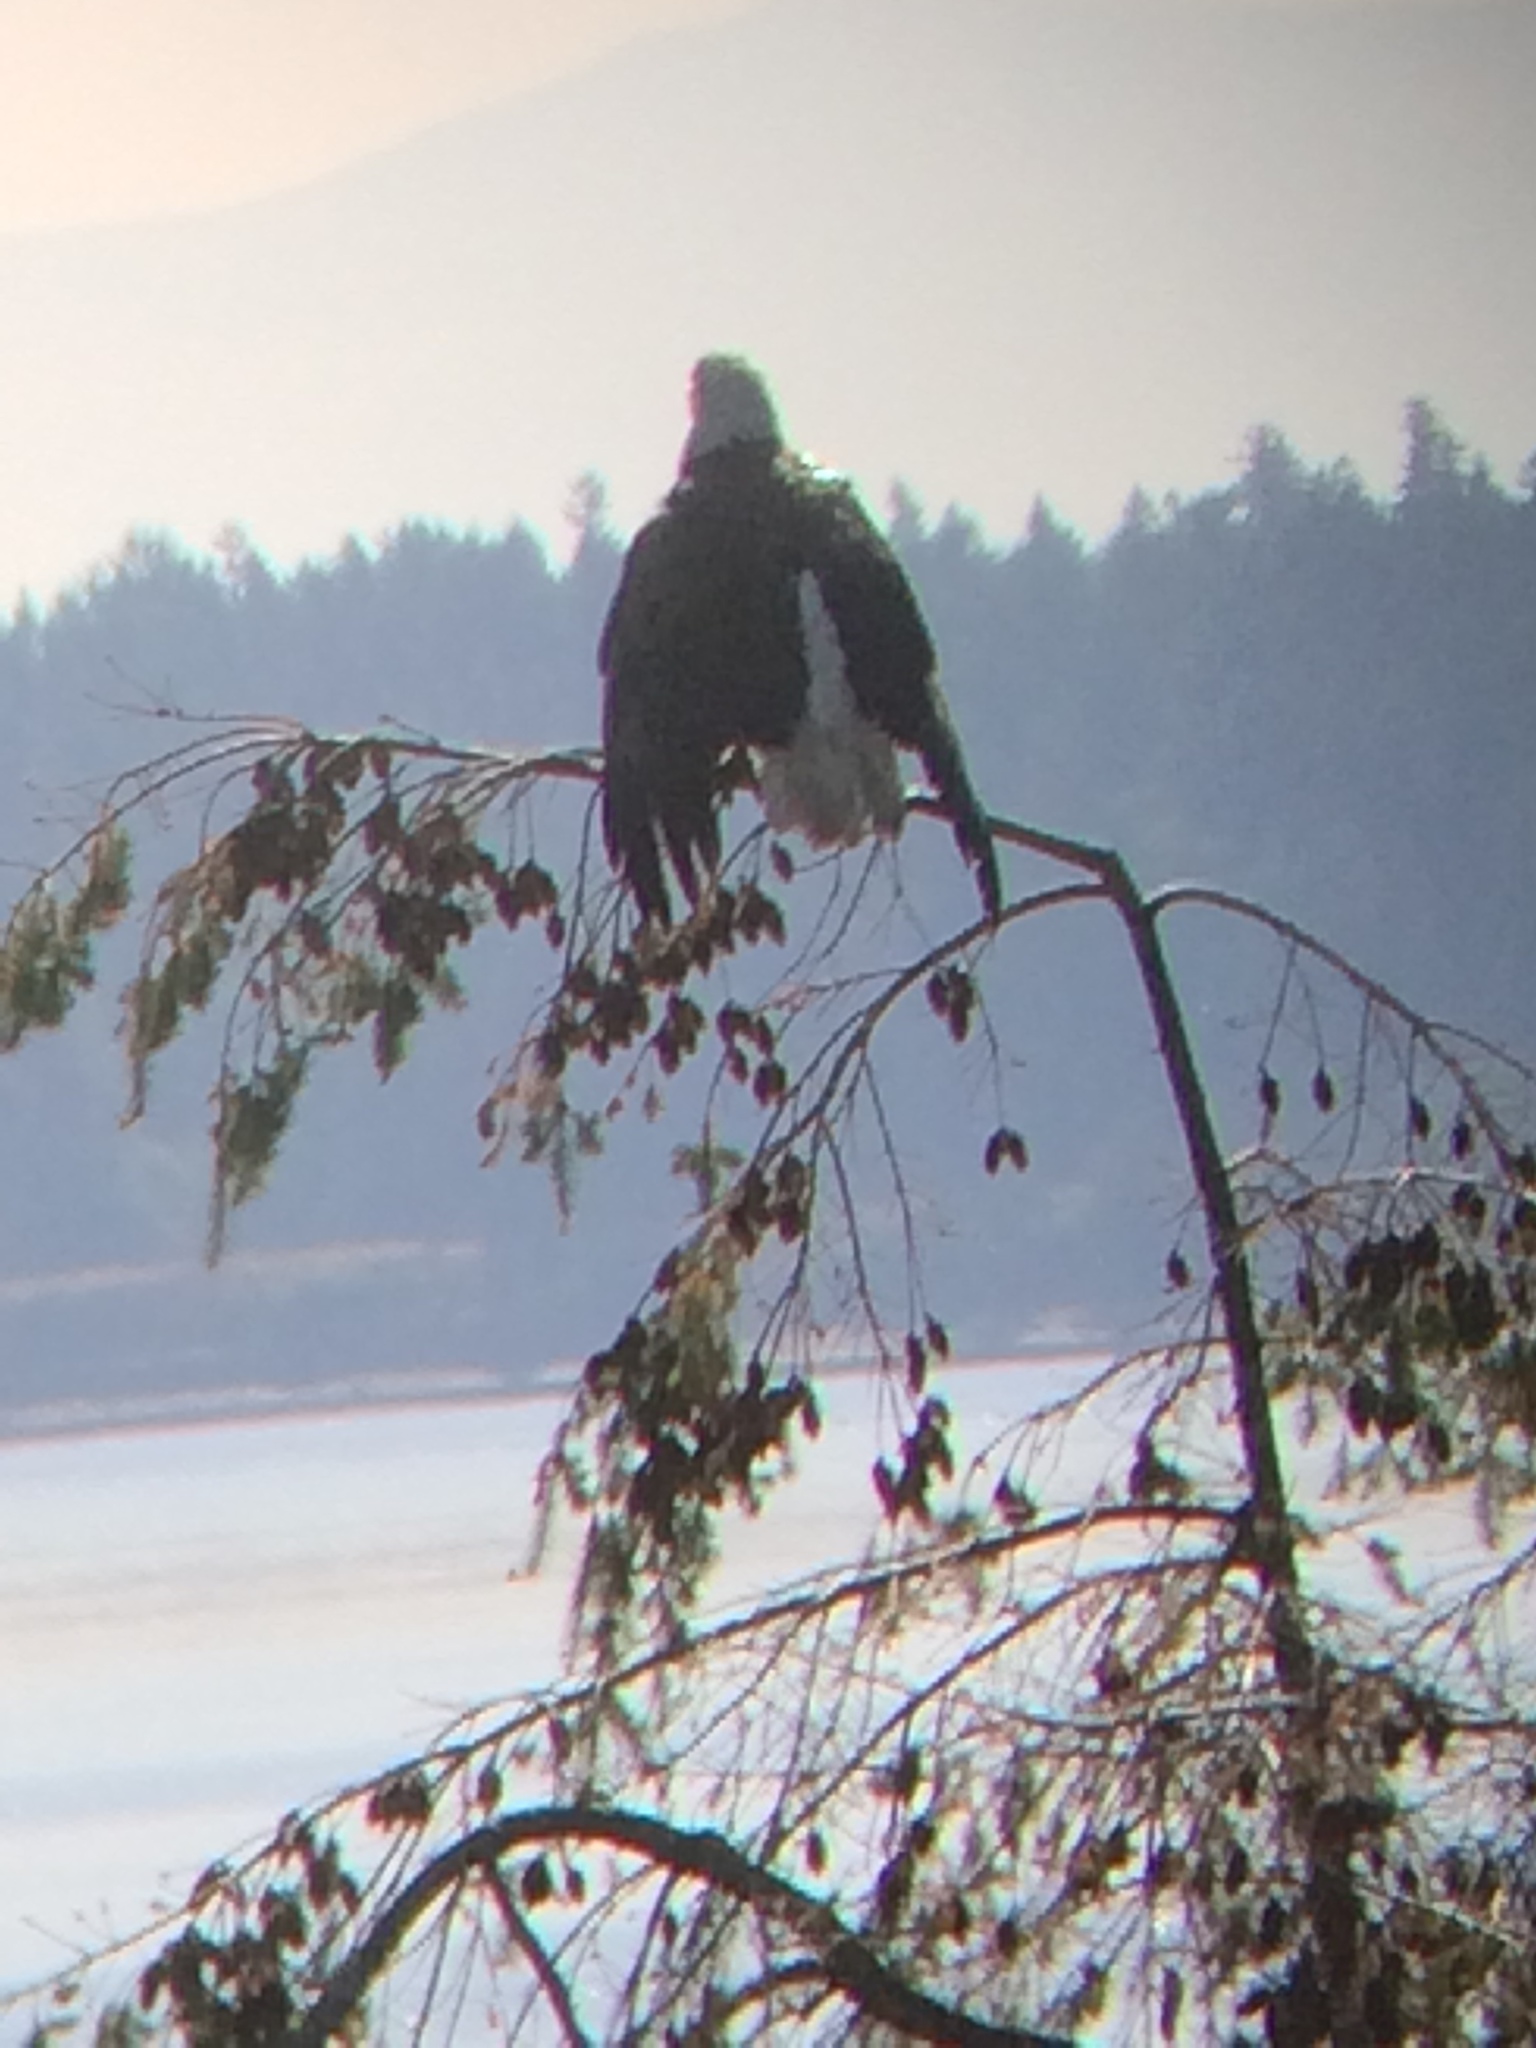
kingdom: Animalia
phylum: Chordata
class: Aves
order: Accipitriformes
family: Accipitridae
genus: Haliaeetus
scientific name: Haliaeetus leucocephalus
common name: Bald eagle
